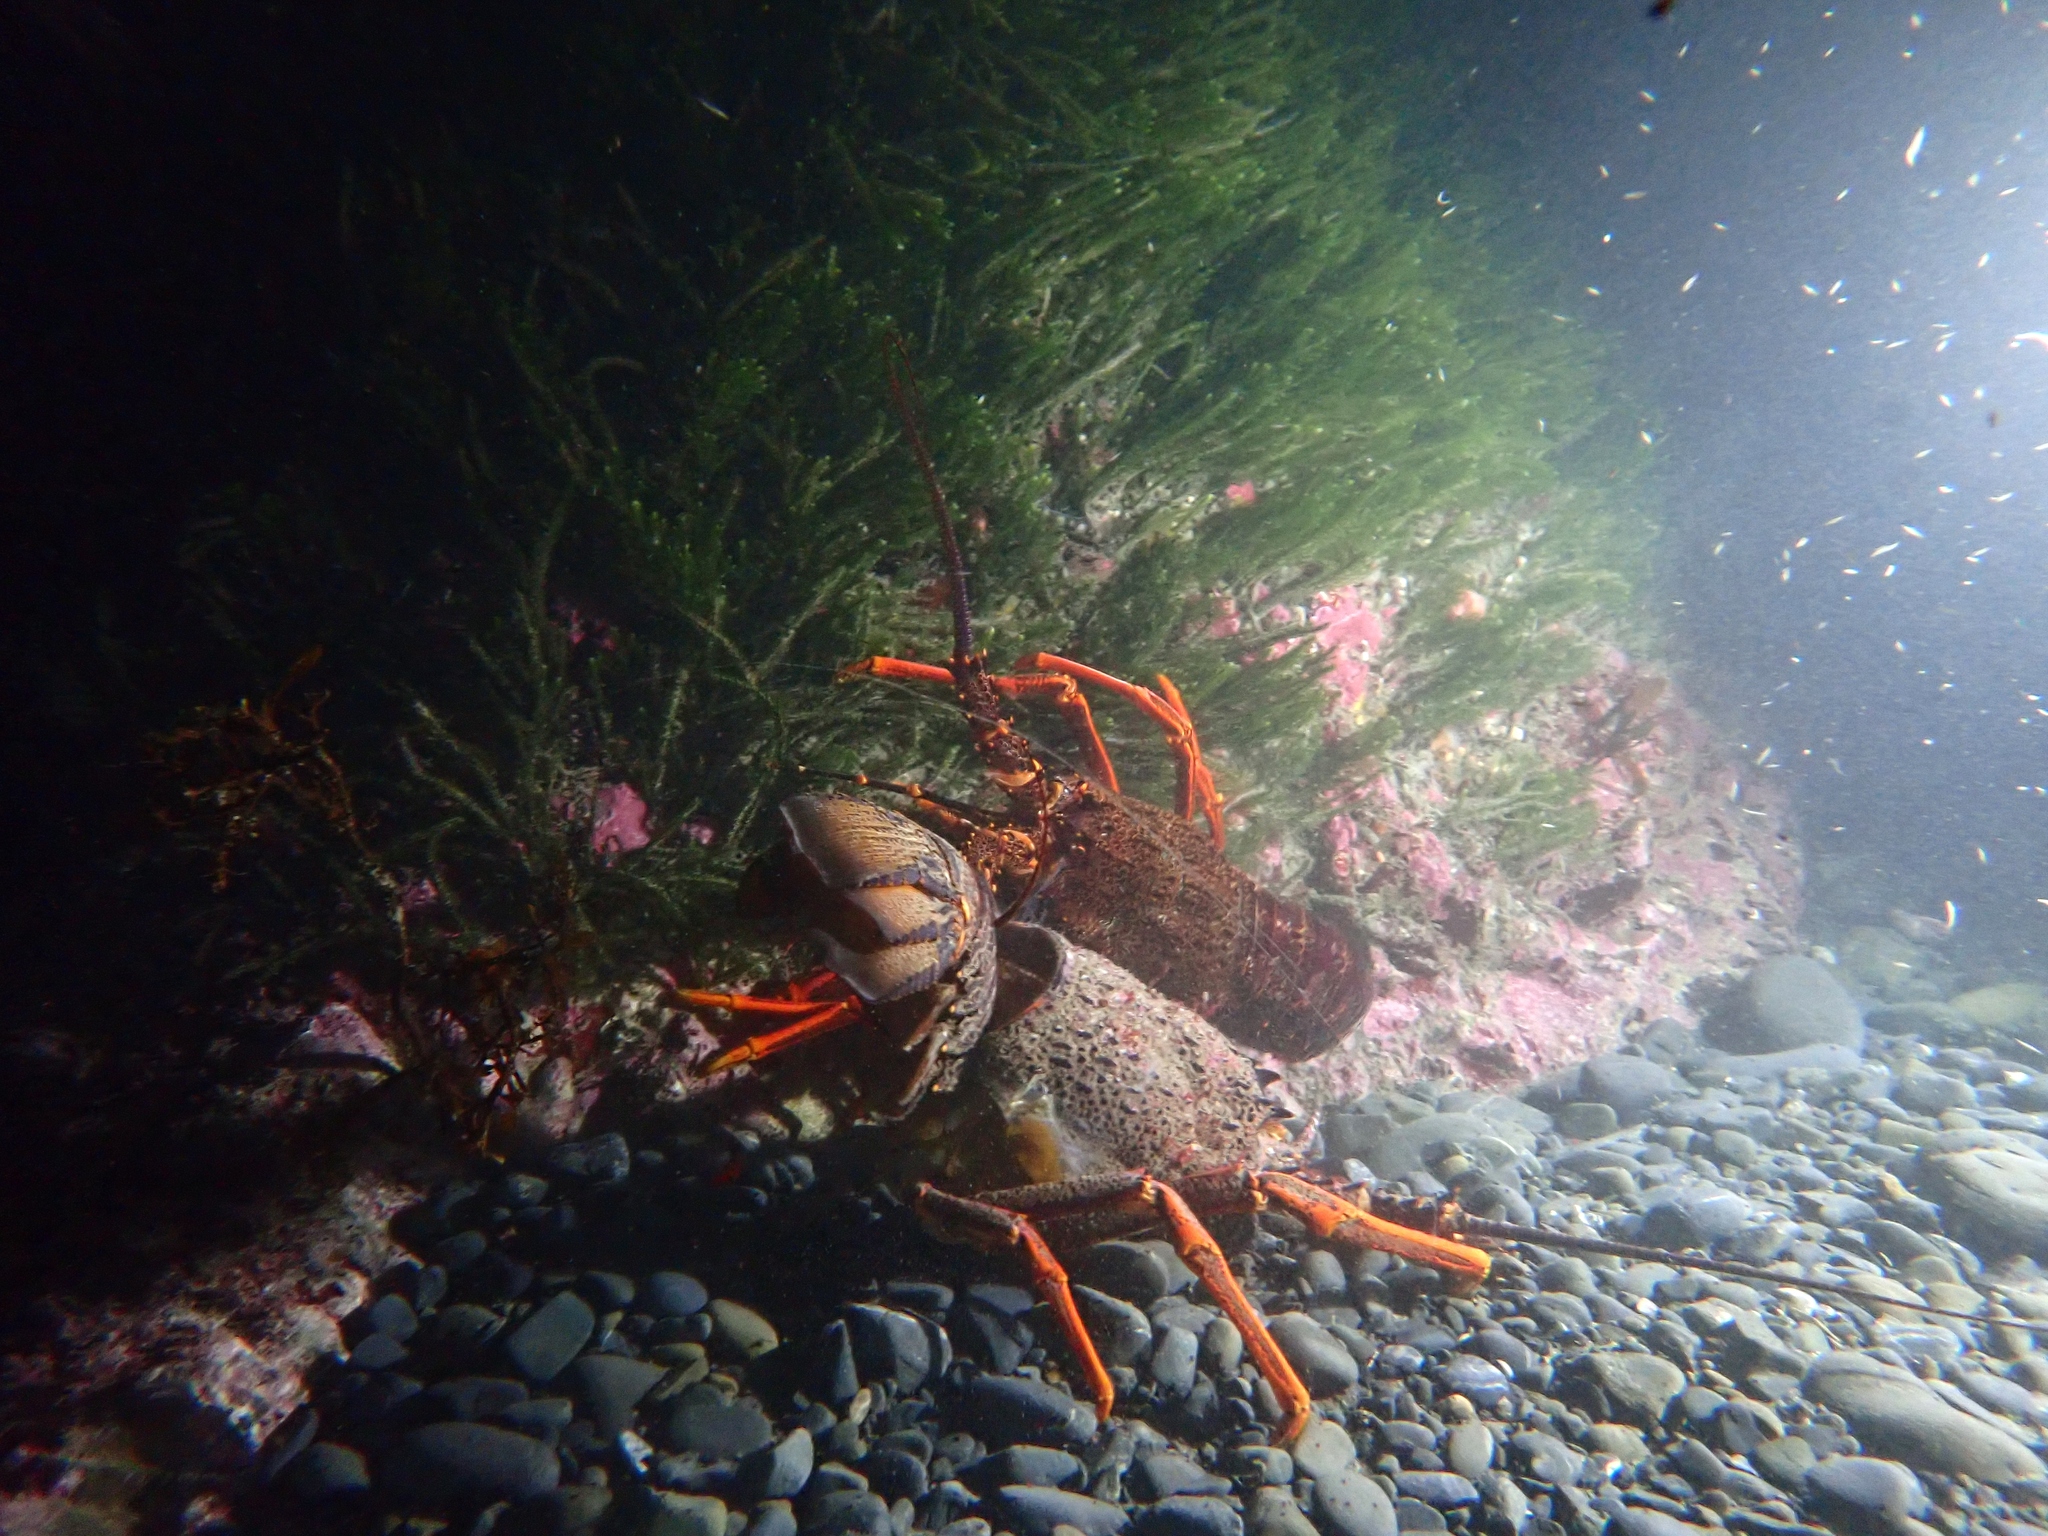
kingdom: Animalia
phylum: Arthropoda
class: Malacostraca
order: Decapoda
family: Palinuridae
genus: Jasus
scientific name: Jasus edwardsii
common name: Red rock lobster
